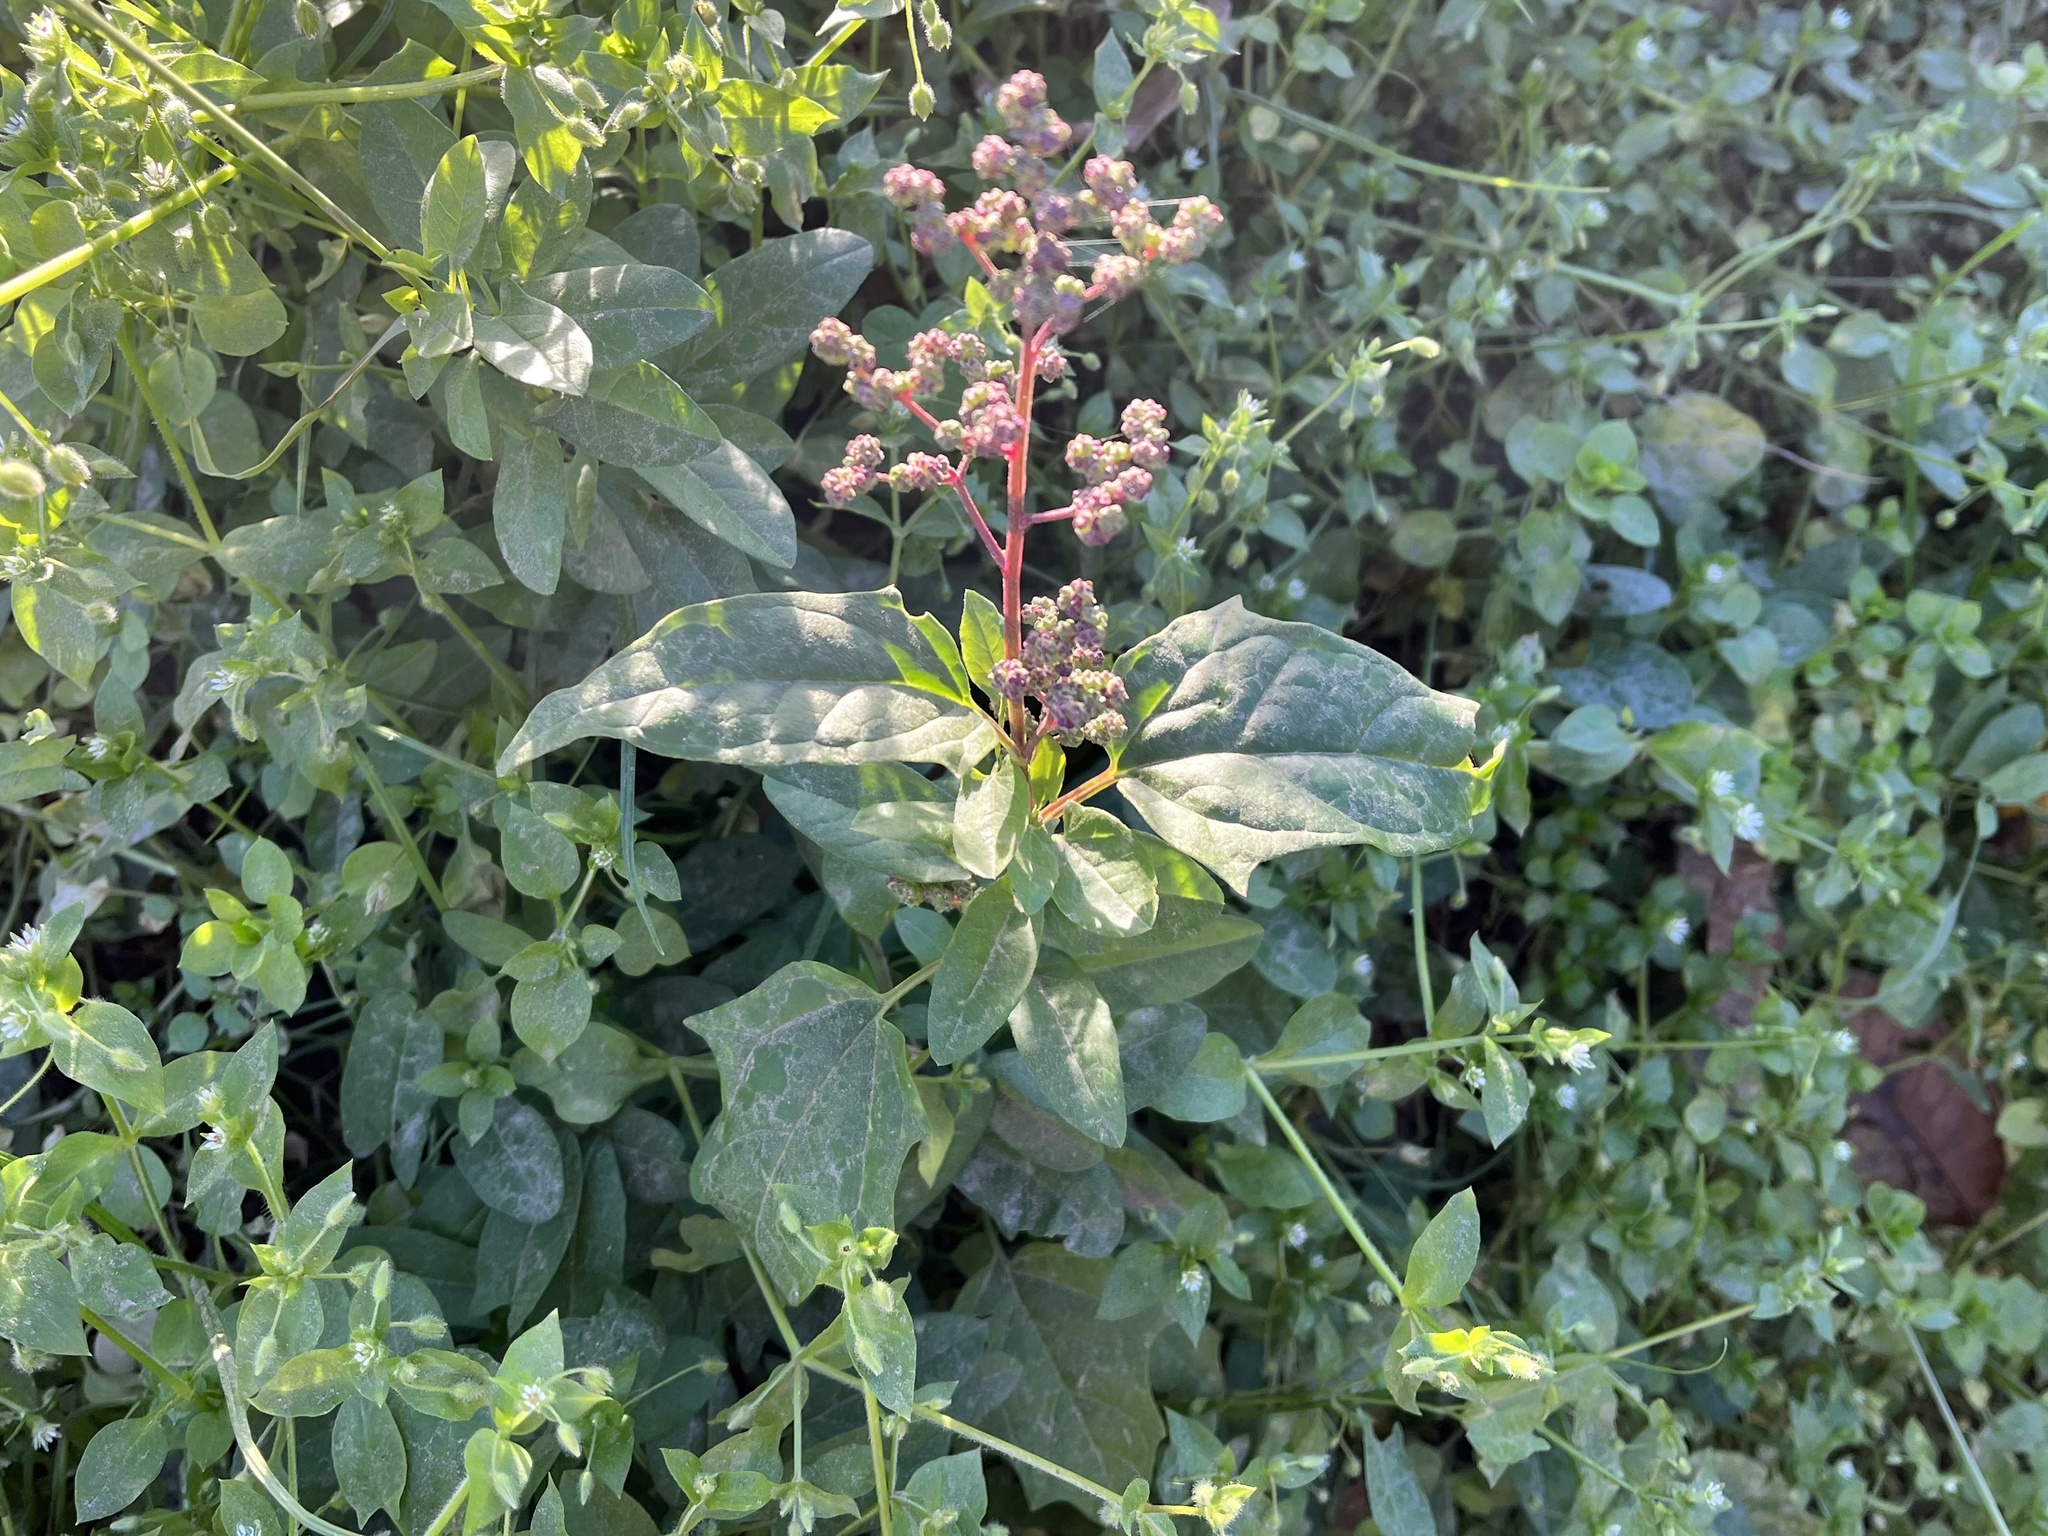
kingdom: Plantae
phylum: Tracheophyta
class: Magnoliopsida
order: Caryophyllales
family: Amaranthaceae
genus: Chenopodiastrum
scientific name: Chenopodiastrum hybridum
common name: Mapleleaf goosefoot
